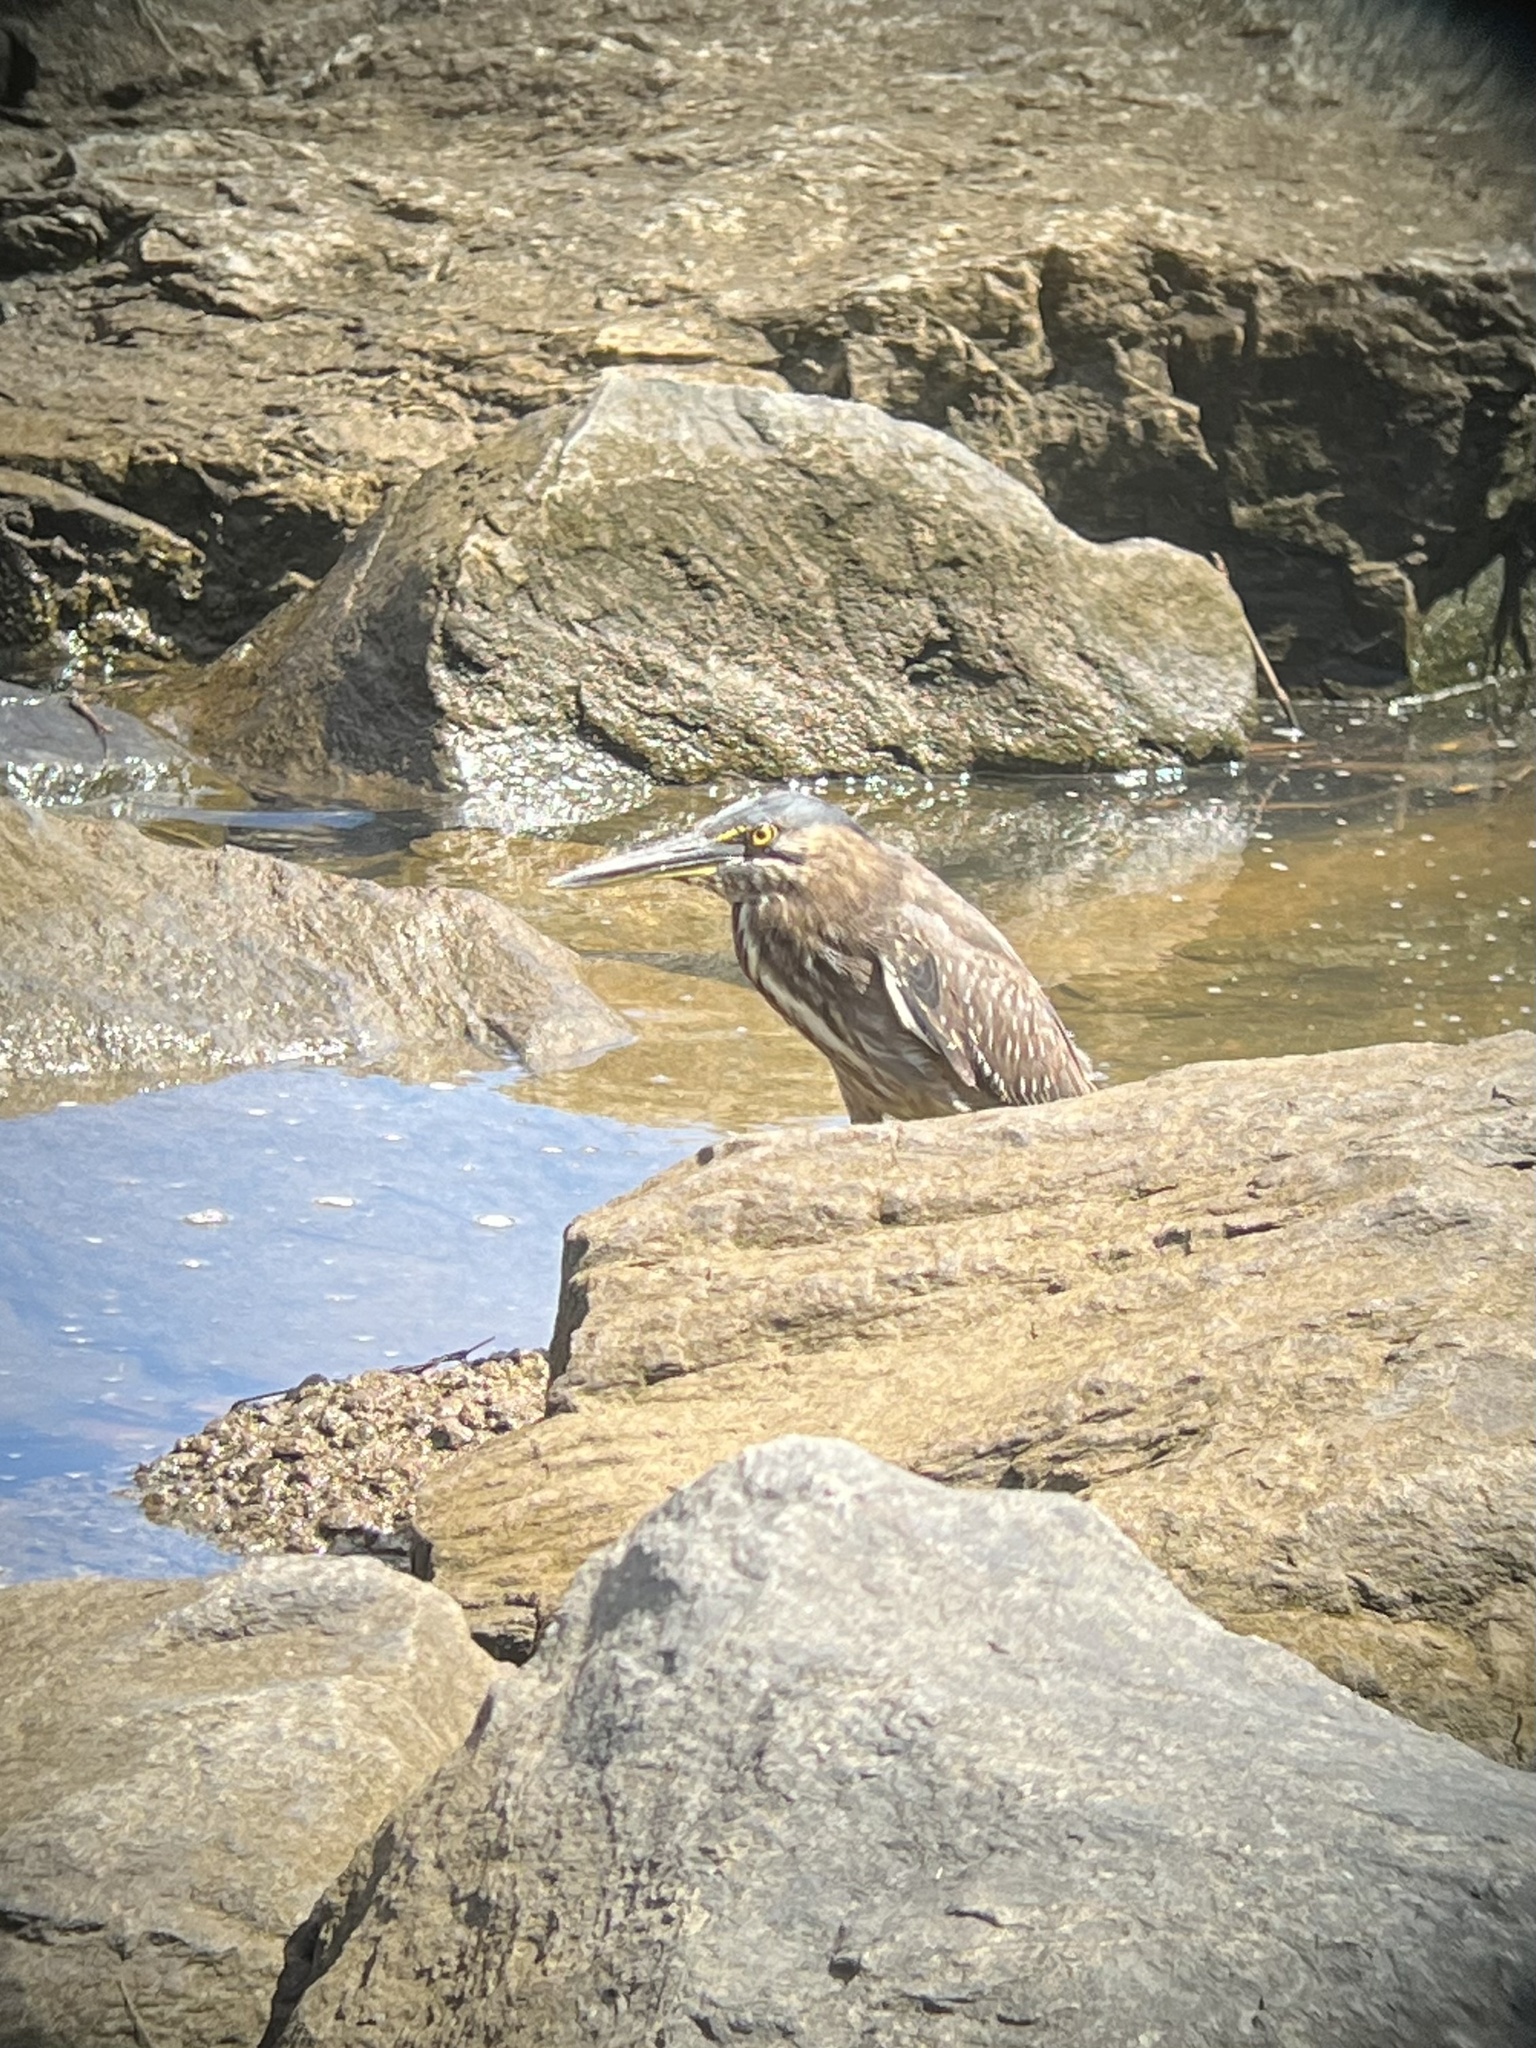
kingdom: Animalia
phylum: Chordata
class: Aves
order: Pelecaniformes
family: Ardeidae
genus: Butorides
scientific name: Butorides striata
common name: Striated heron
